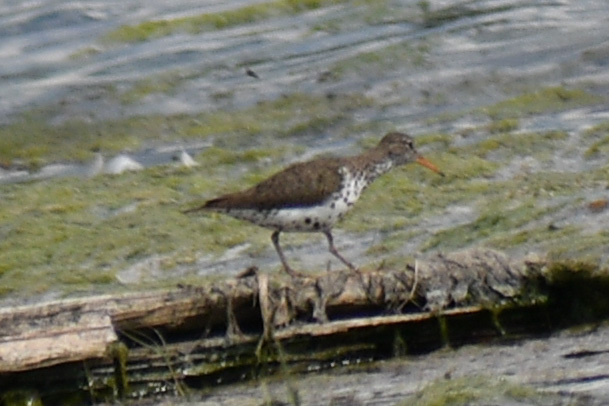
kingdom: Animalia
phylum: Chordata
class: Aves
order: Charadriiformes
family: Scolopacidae
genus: Actitis
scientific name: Actitis macularius
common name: Spotted sandpiper
